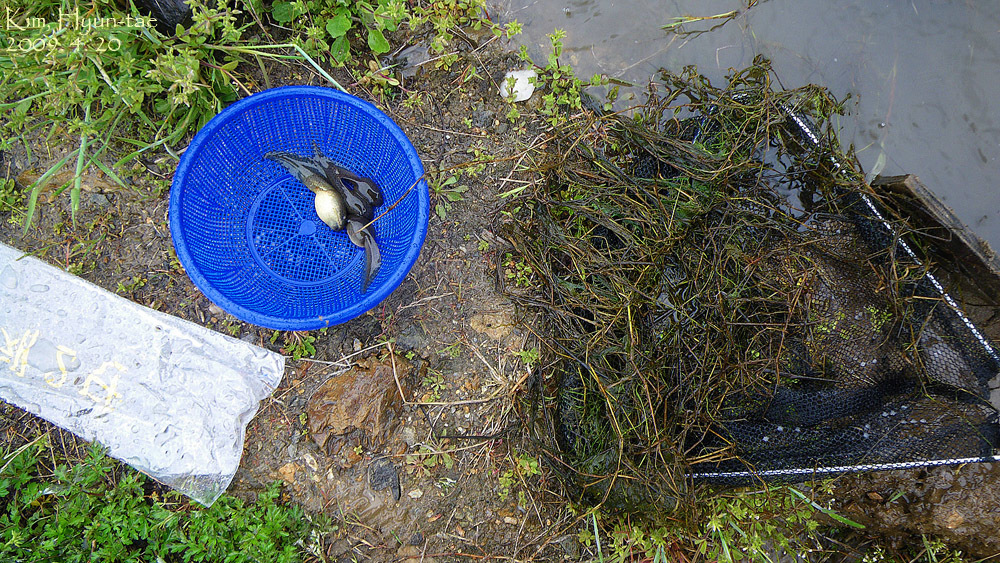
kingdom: Animalia
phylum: Chordata
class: Amphibia
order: Anura
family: Ranidae
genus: Lithobates
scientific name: Lithobates catesbeianus
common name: American bullfrog
